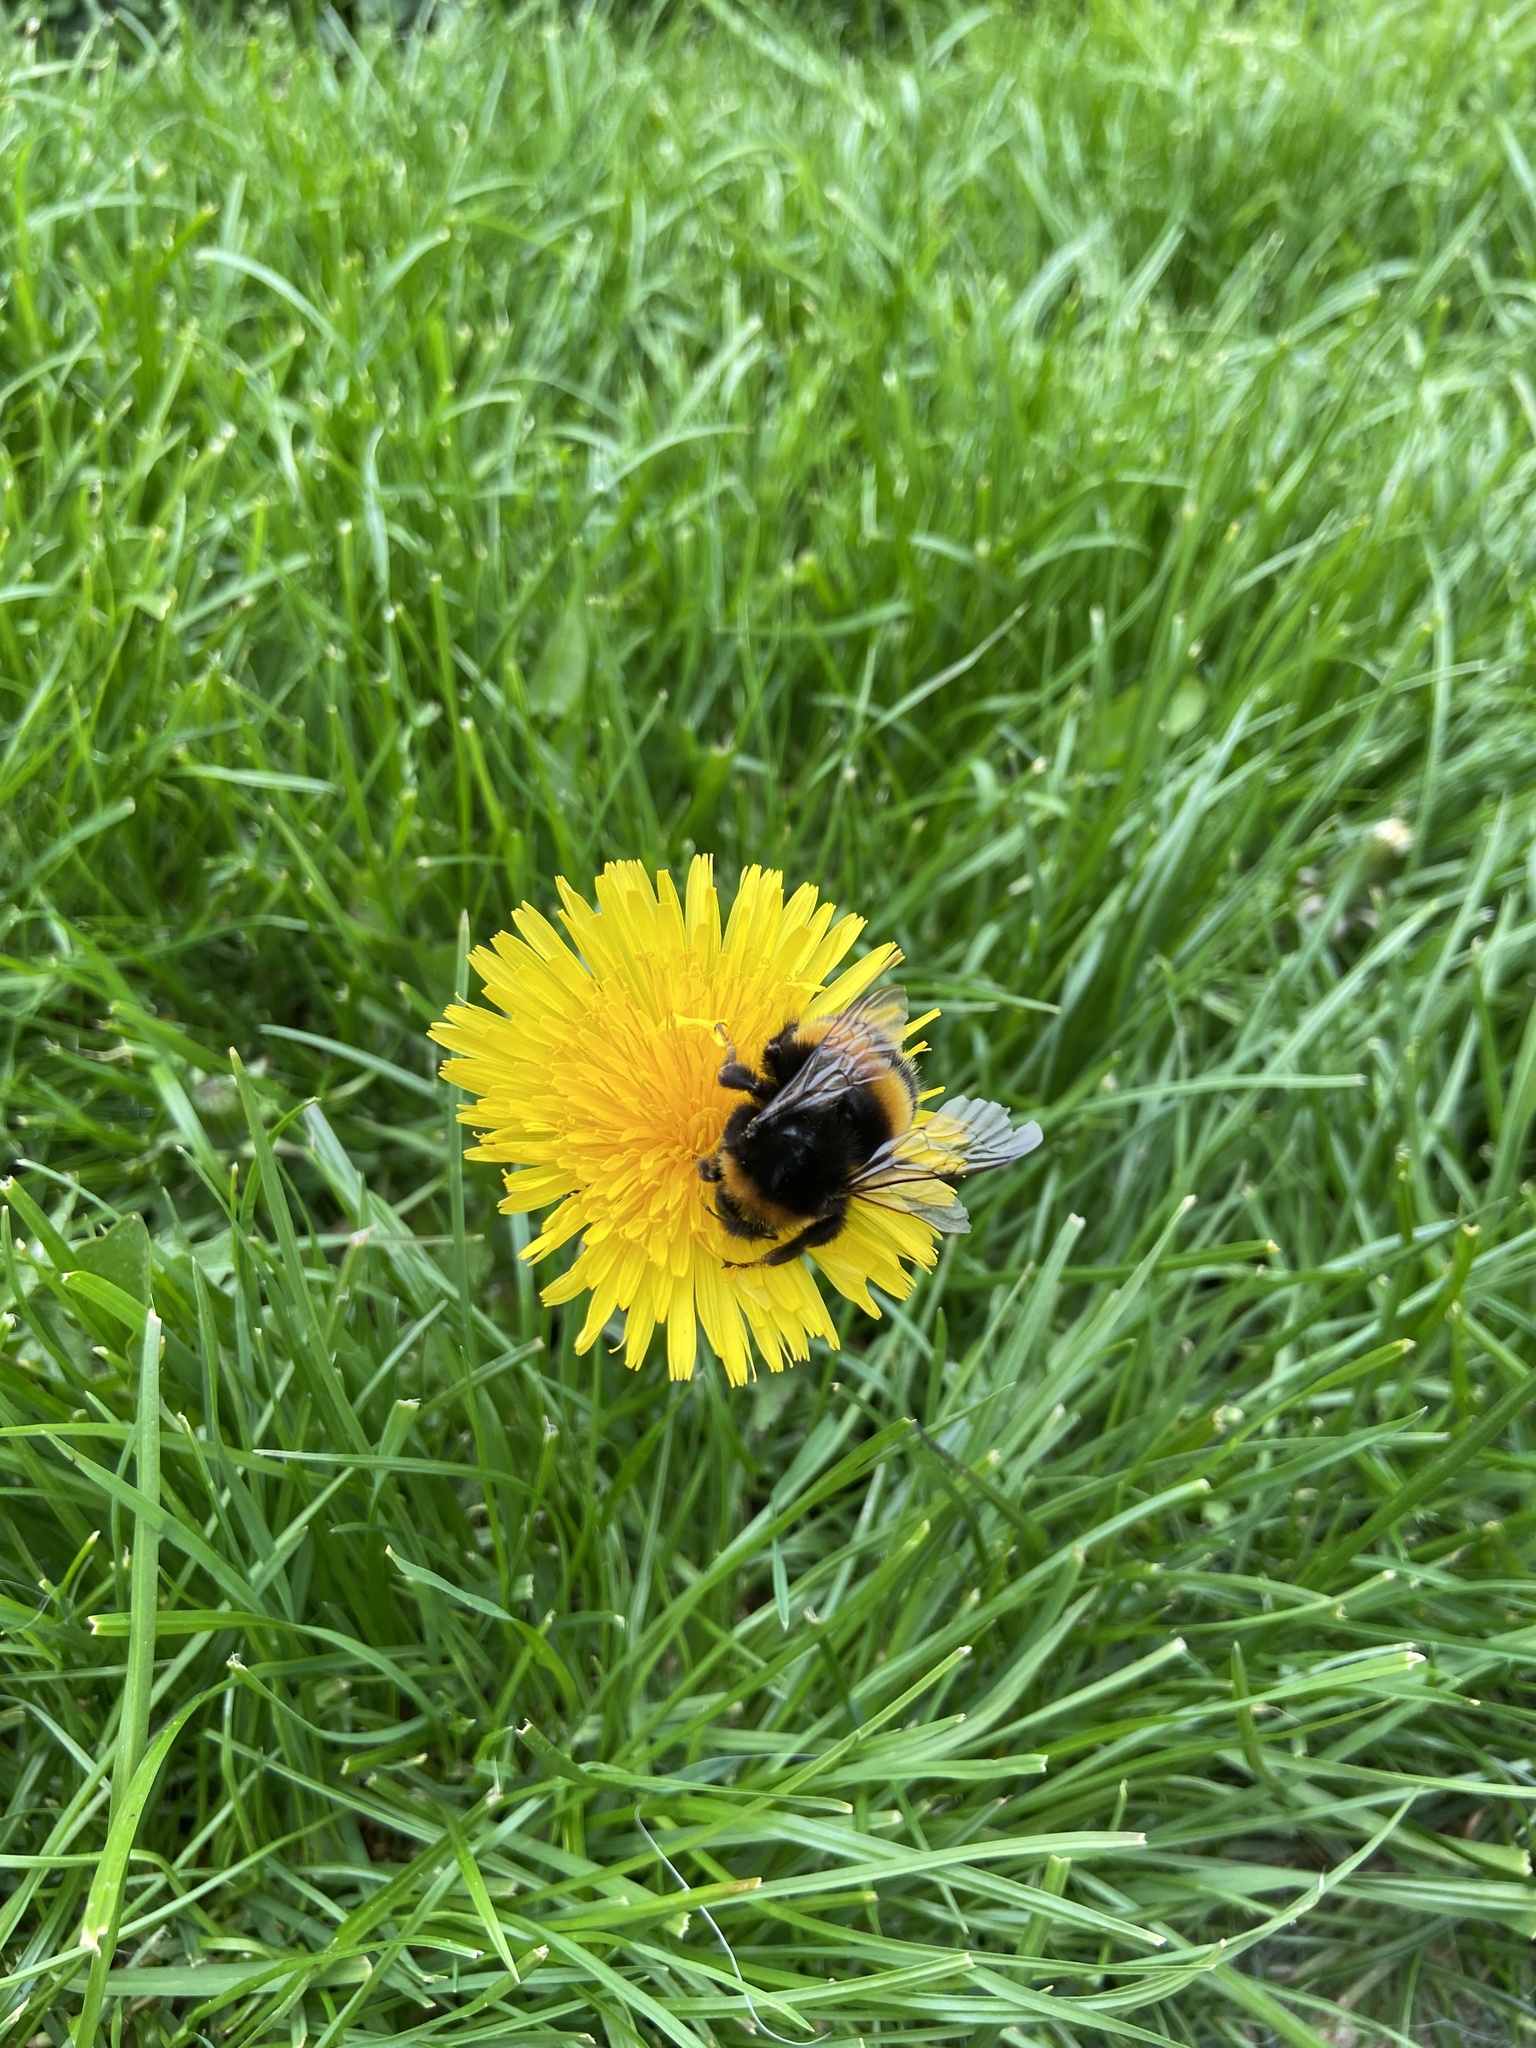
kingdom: Animalia
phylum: Arthropoda
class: Insecta
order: Hymenoptera
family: Apidae
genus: Bombus
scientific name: Bombus terrestris
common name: Buff-tailed bumblebee
